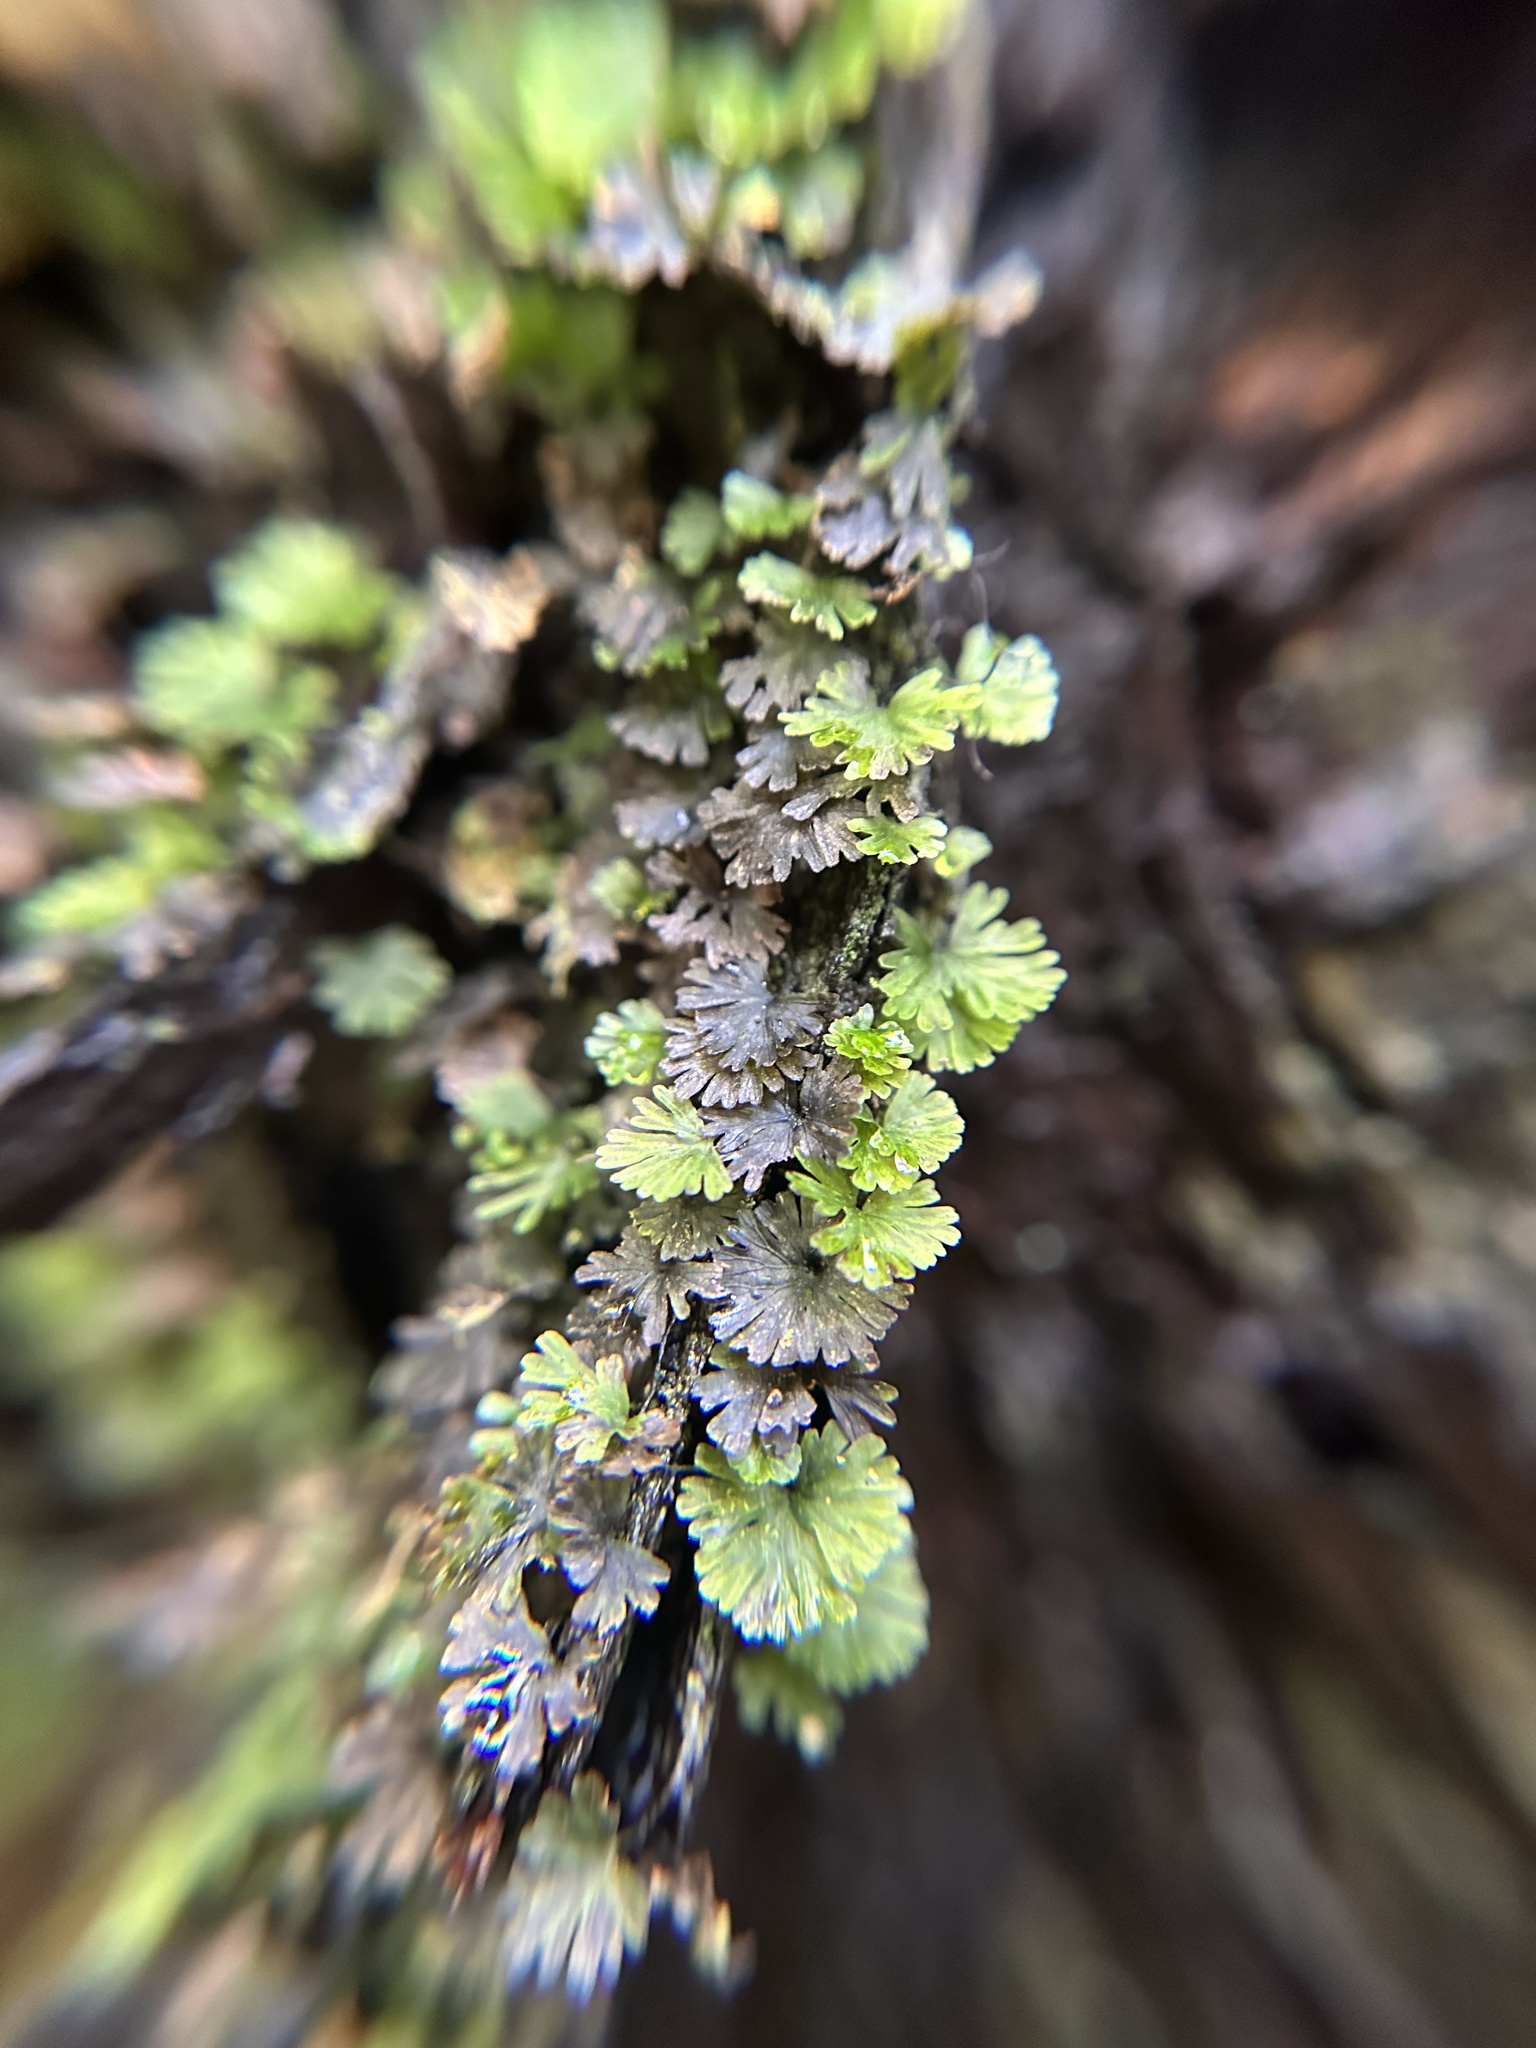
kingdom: Plantae
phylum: Tracheophyta
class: Polypodiopsida
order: Hymenophyllales
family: Hymenophyllaceae
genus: Crepidomanes
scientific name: Crepidomanes parvulum
